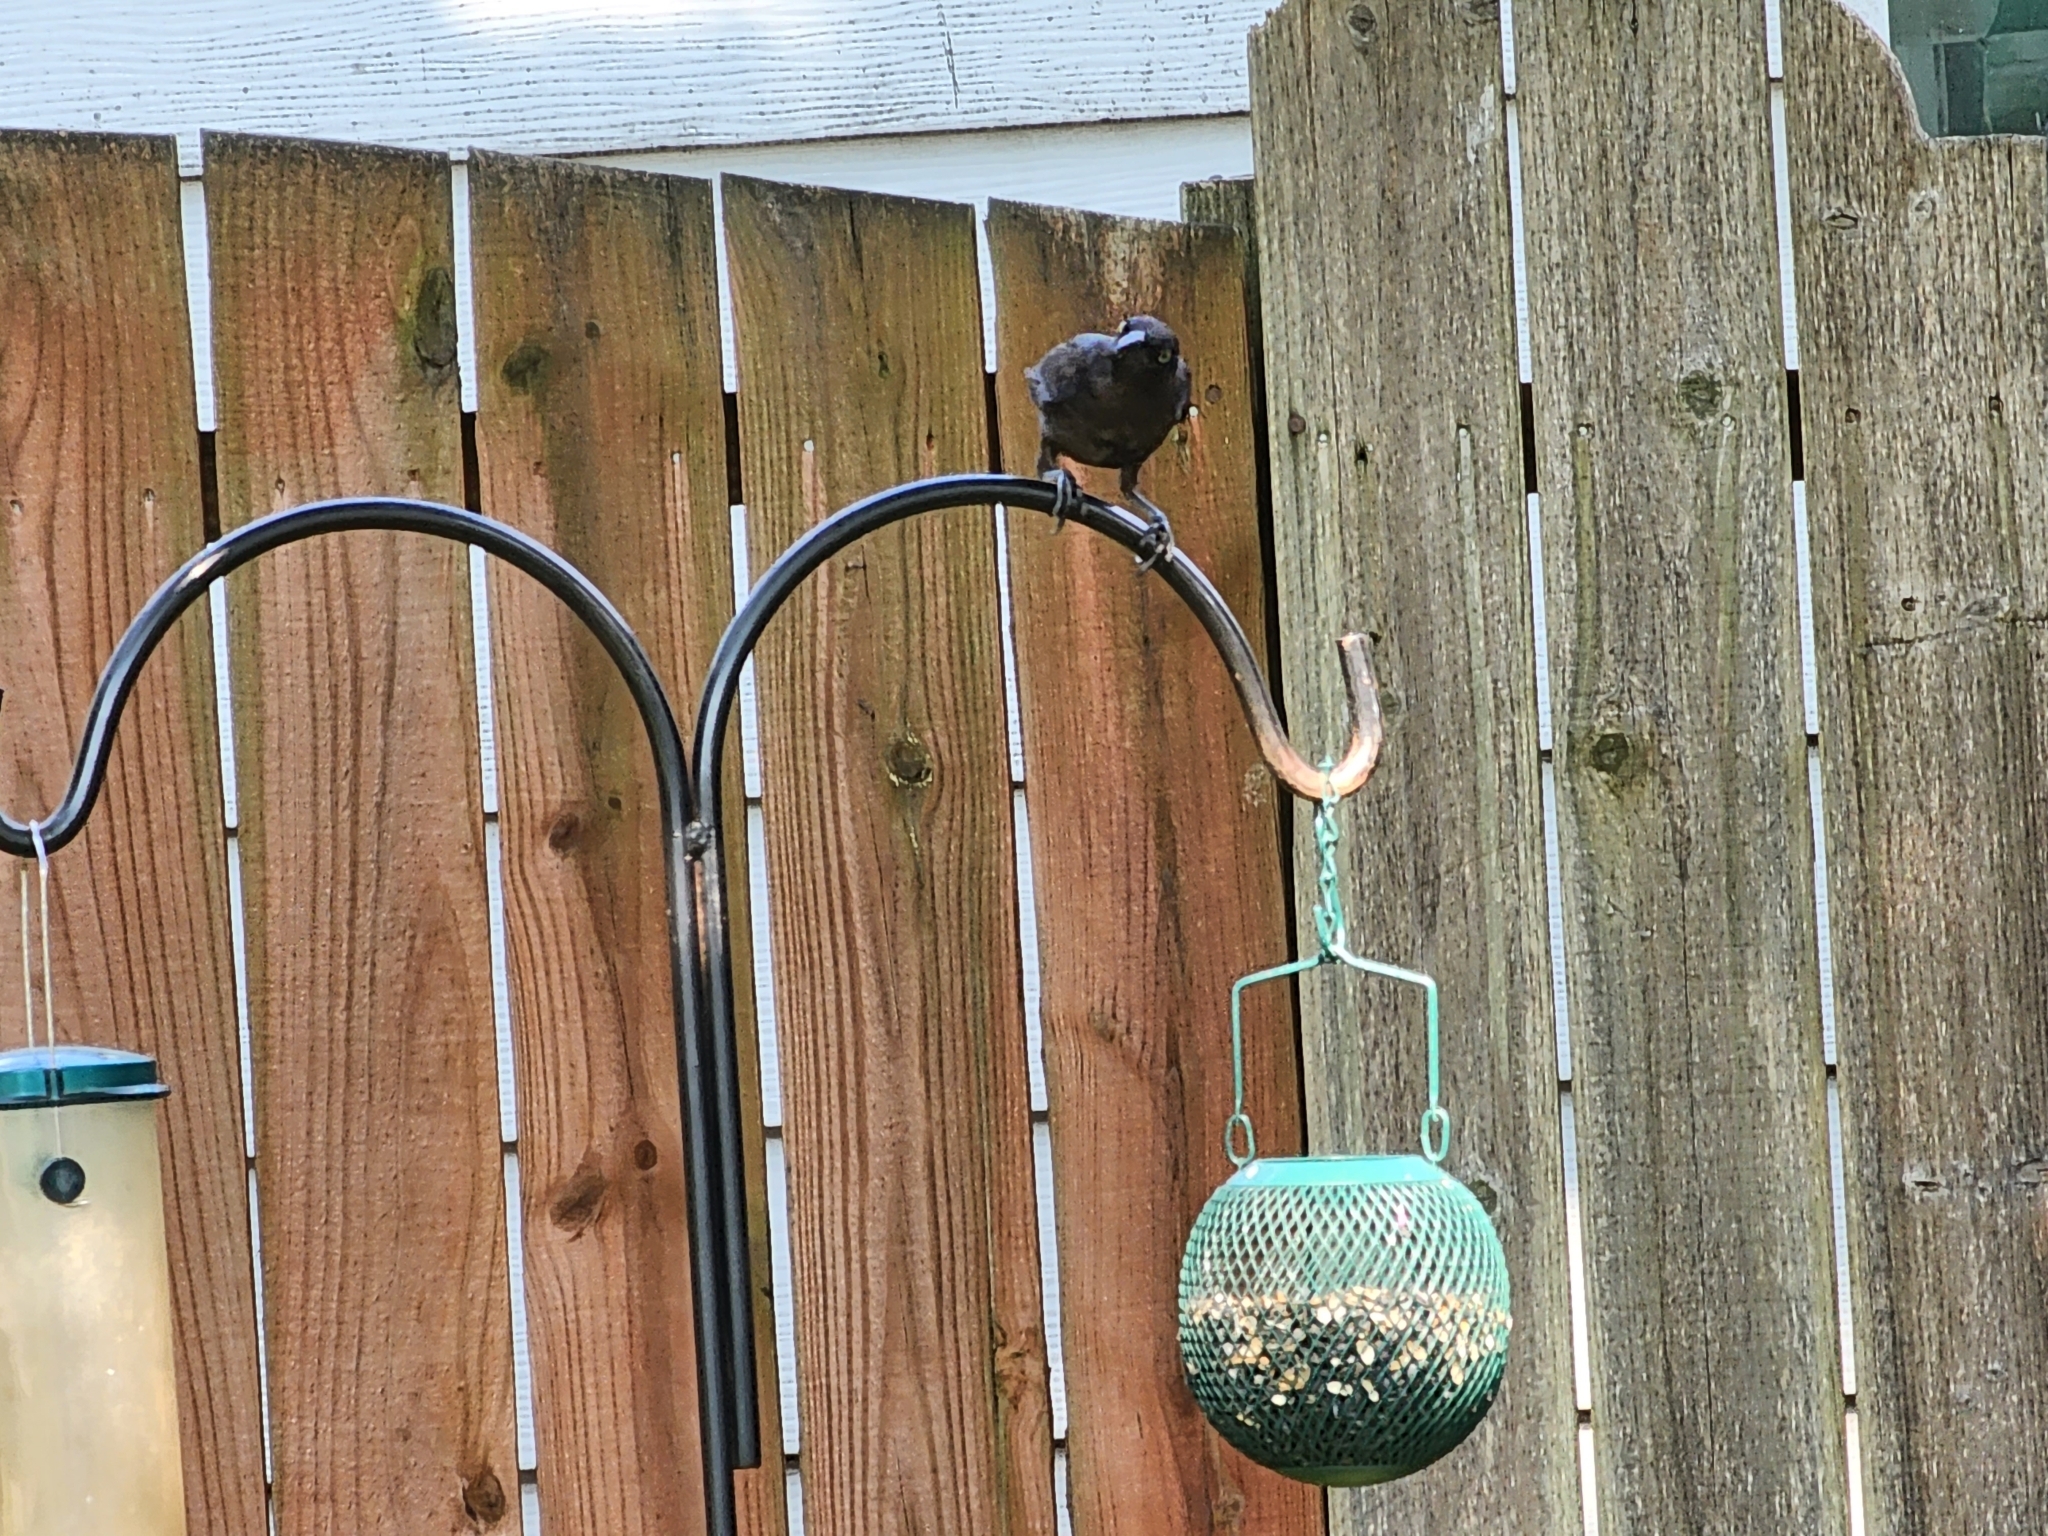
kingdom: Animalia
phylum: Chordata
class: Aves
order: Passeriformes
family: Icteridae
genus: Quiscalus
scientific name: Quiscalus quiscula
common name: Common grackle
